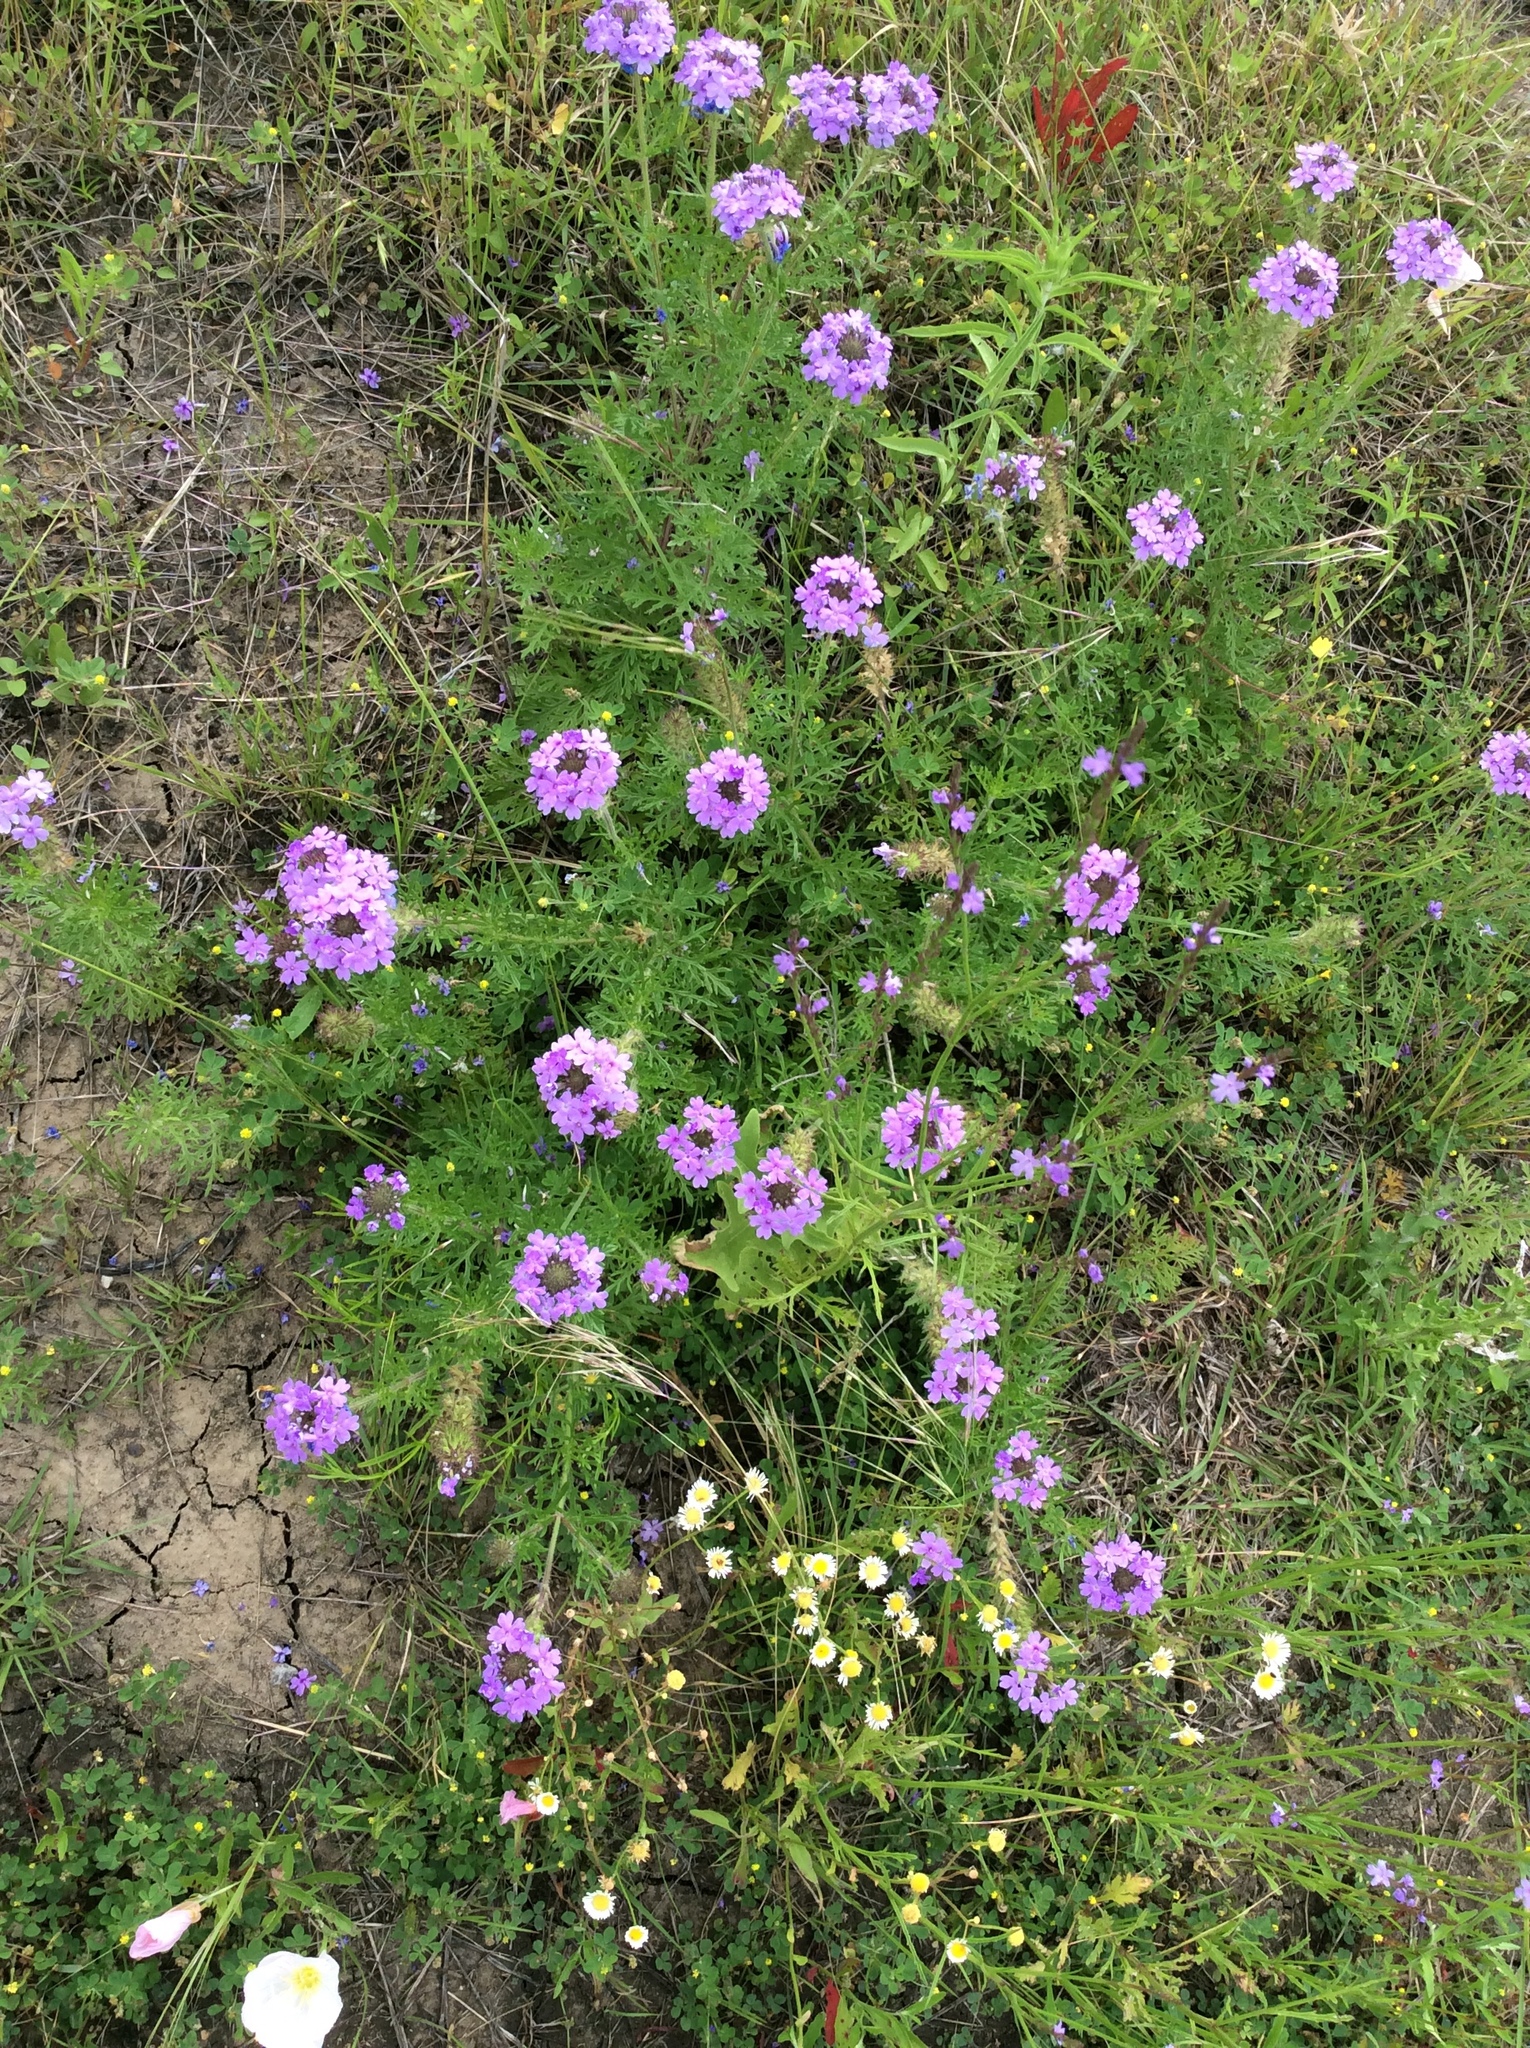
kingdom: Plantae
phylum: Tracheophyta
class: Magnoliopsida
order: Lamiales
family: Verbenaceae
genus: Verbena
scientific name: Verbena bipinnatifida
